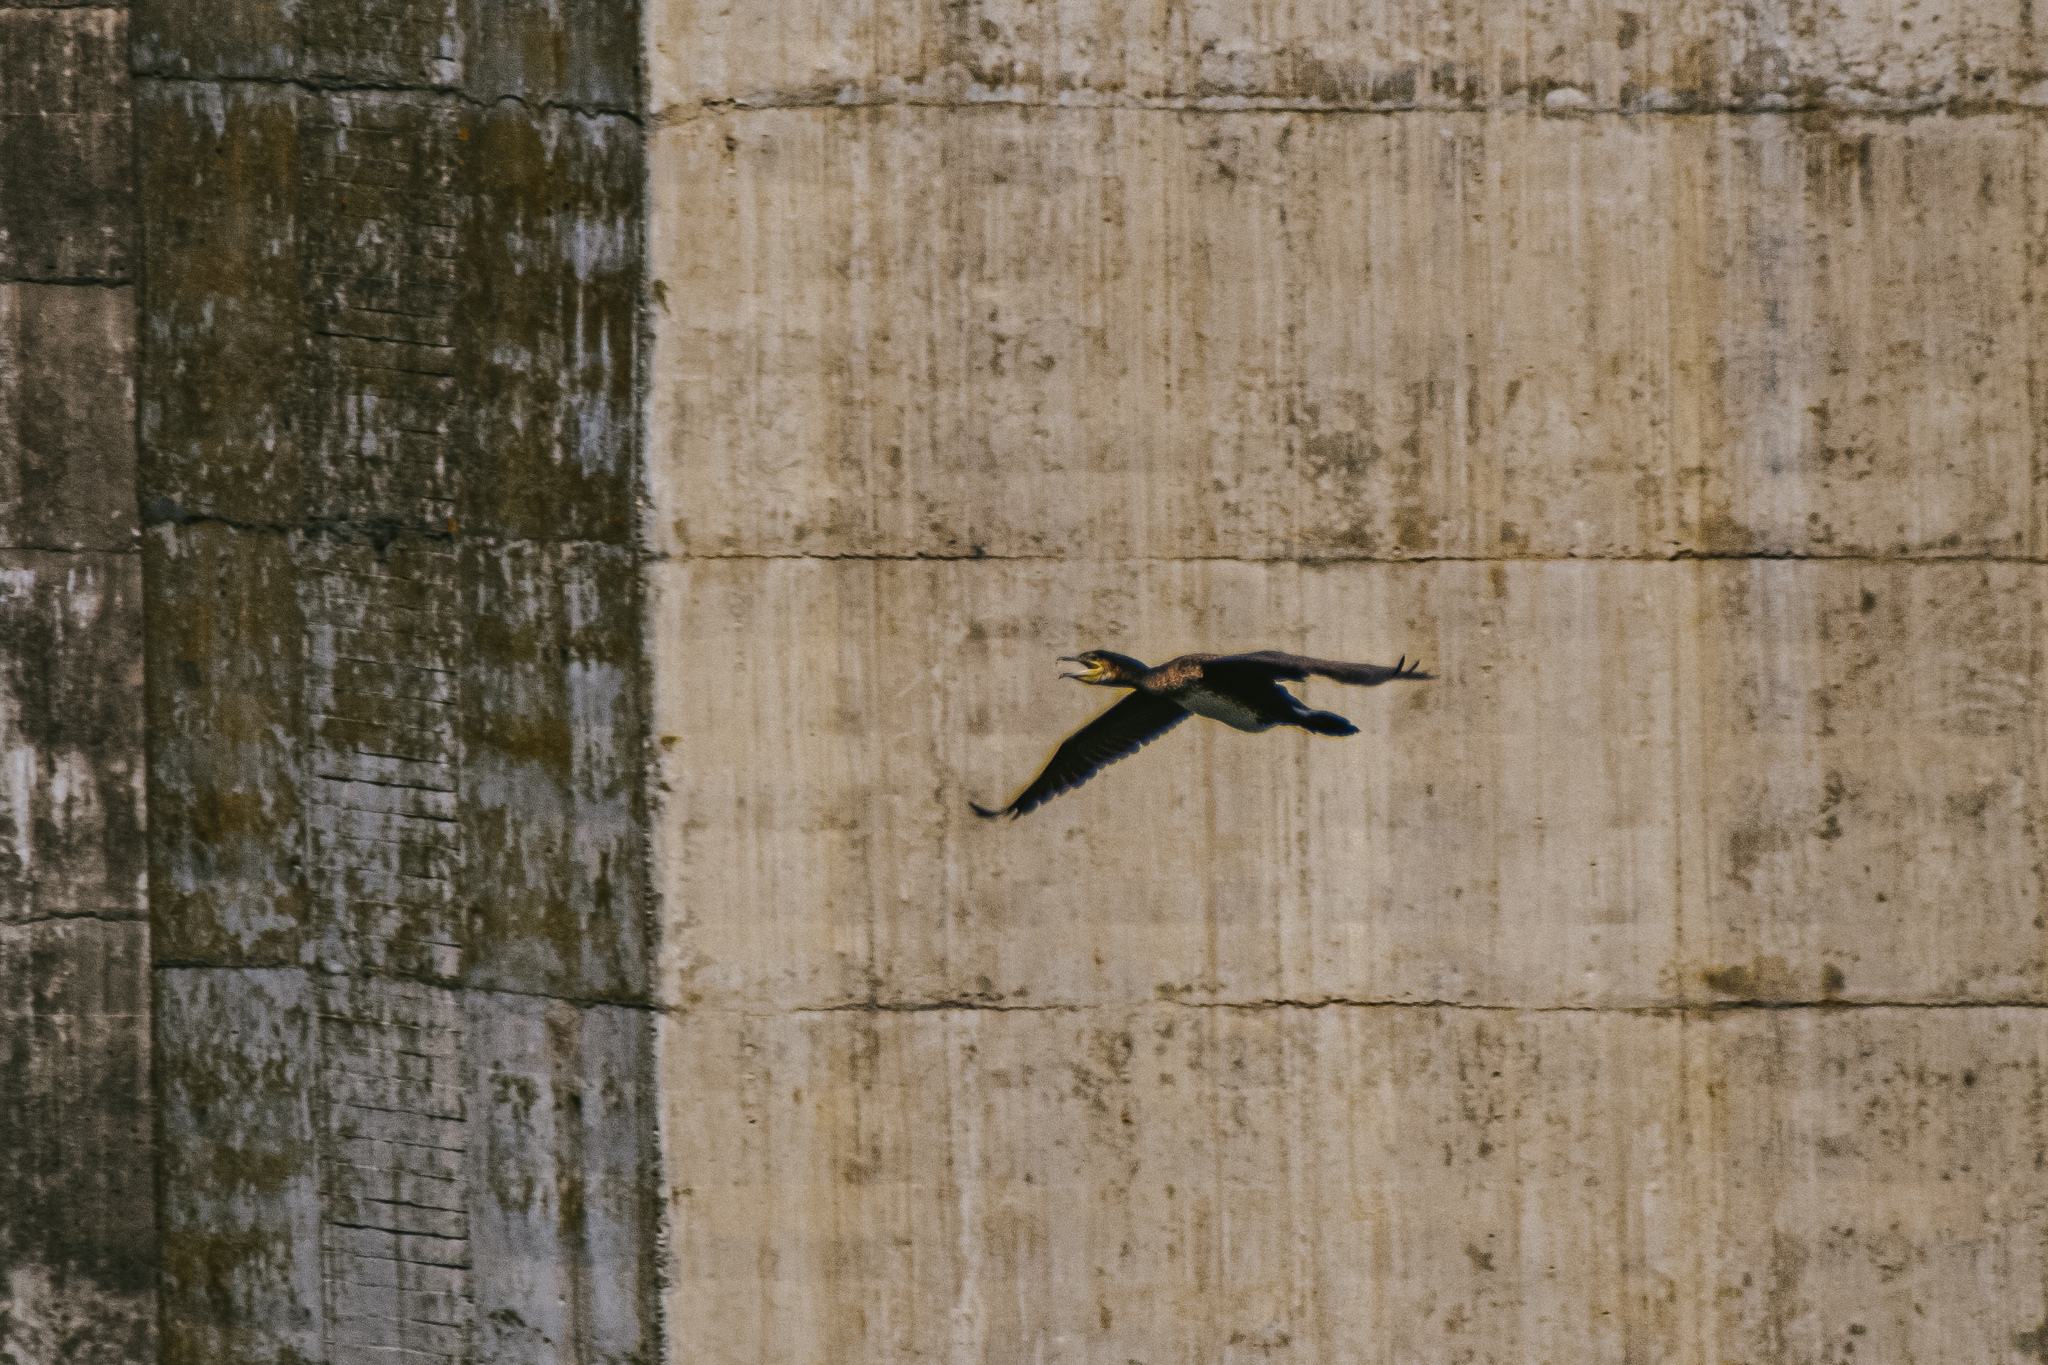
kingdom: Animalia
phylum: Chordata
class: Aves
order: Suliformes
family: Phalacrocoracidae
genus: Phalacrocorax
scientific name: Phalacrocorax carbo
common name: Great cormorant
